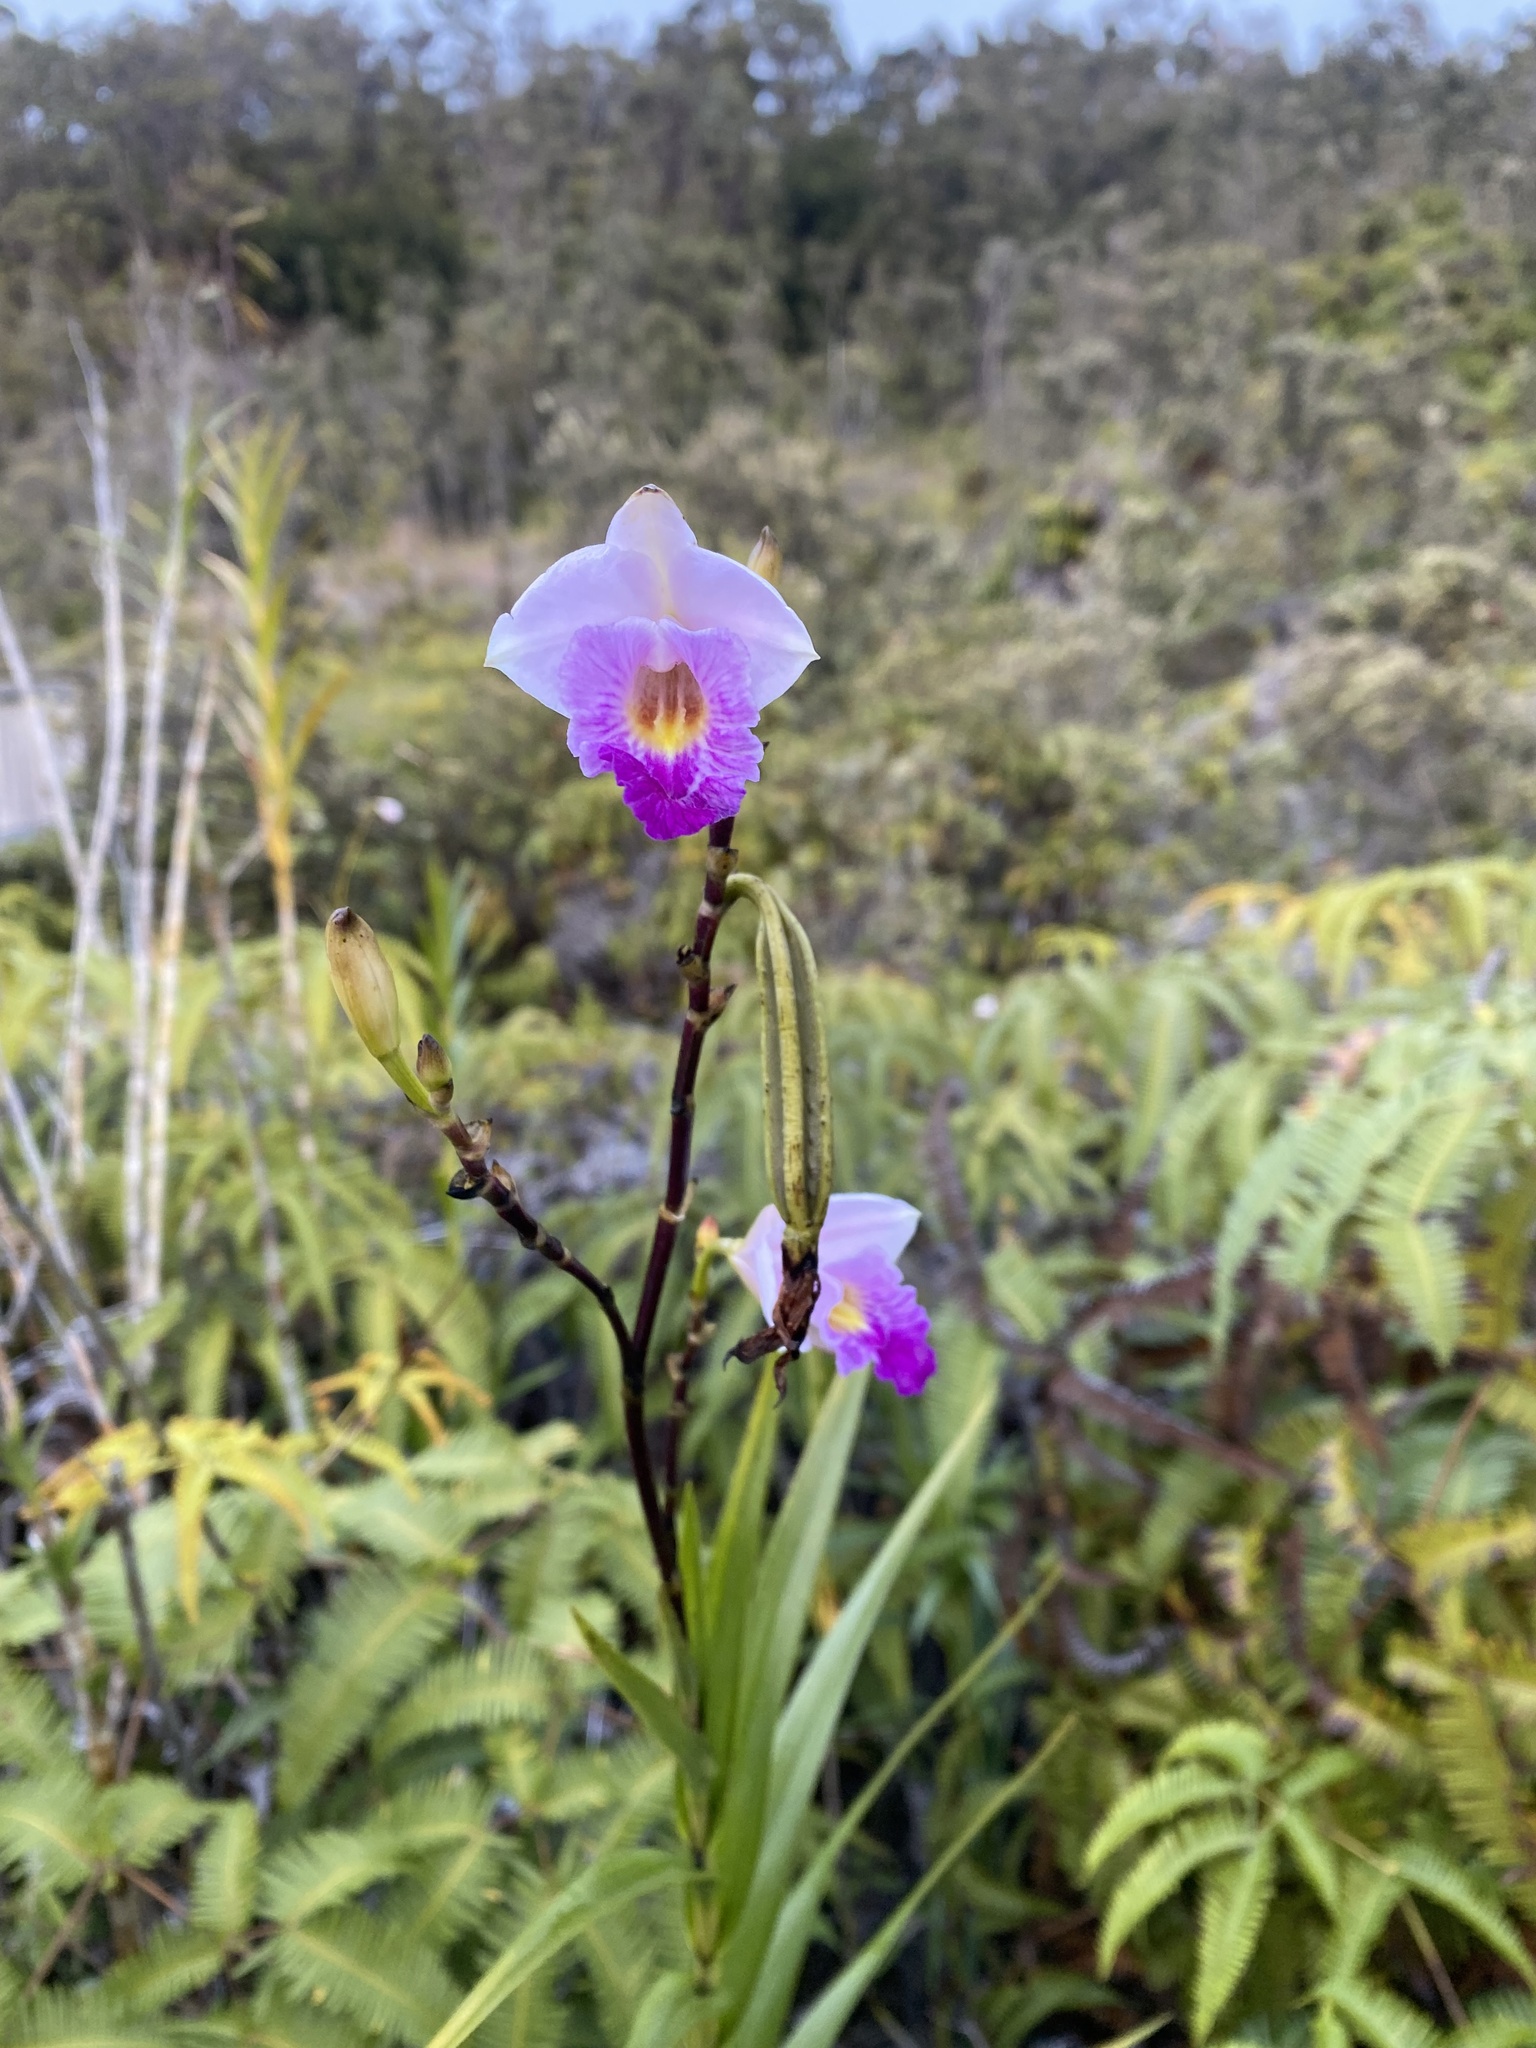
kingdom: Plantae
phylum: Tracheophyta
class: Liliopsida
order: Asparagales
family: Orchidaceae
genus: Arundina
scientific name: Arundina graminifolia
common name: Bamboo orchid
